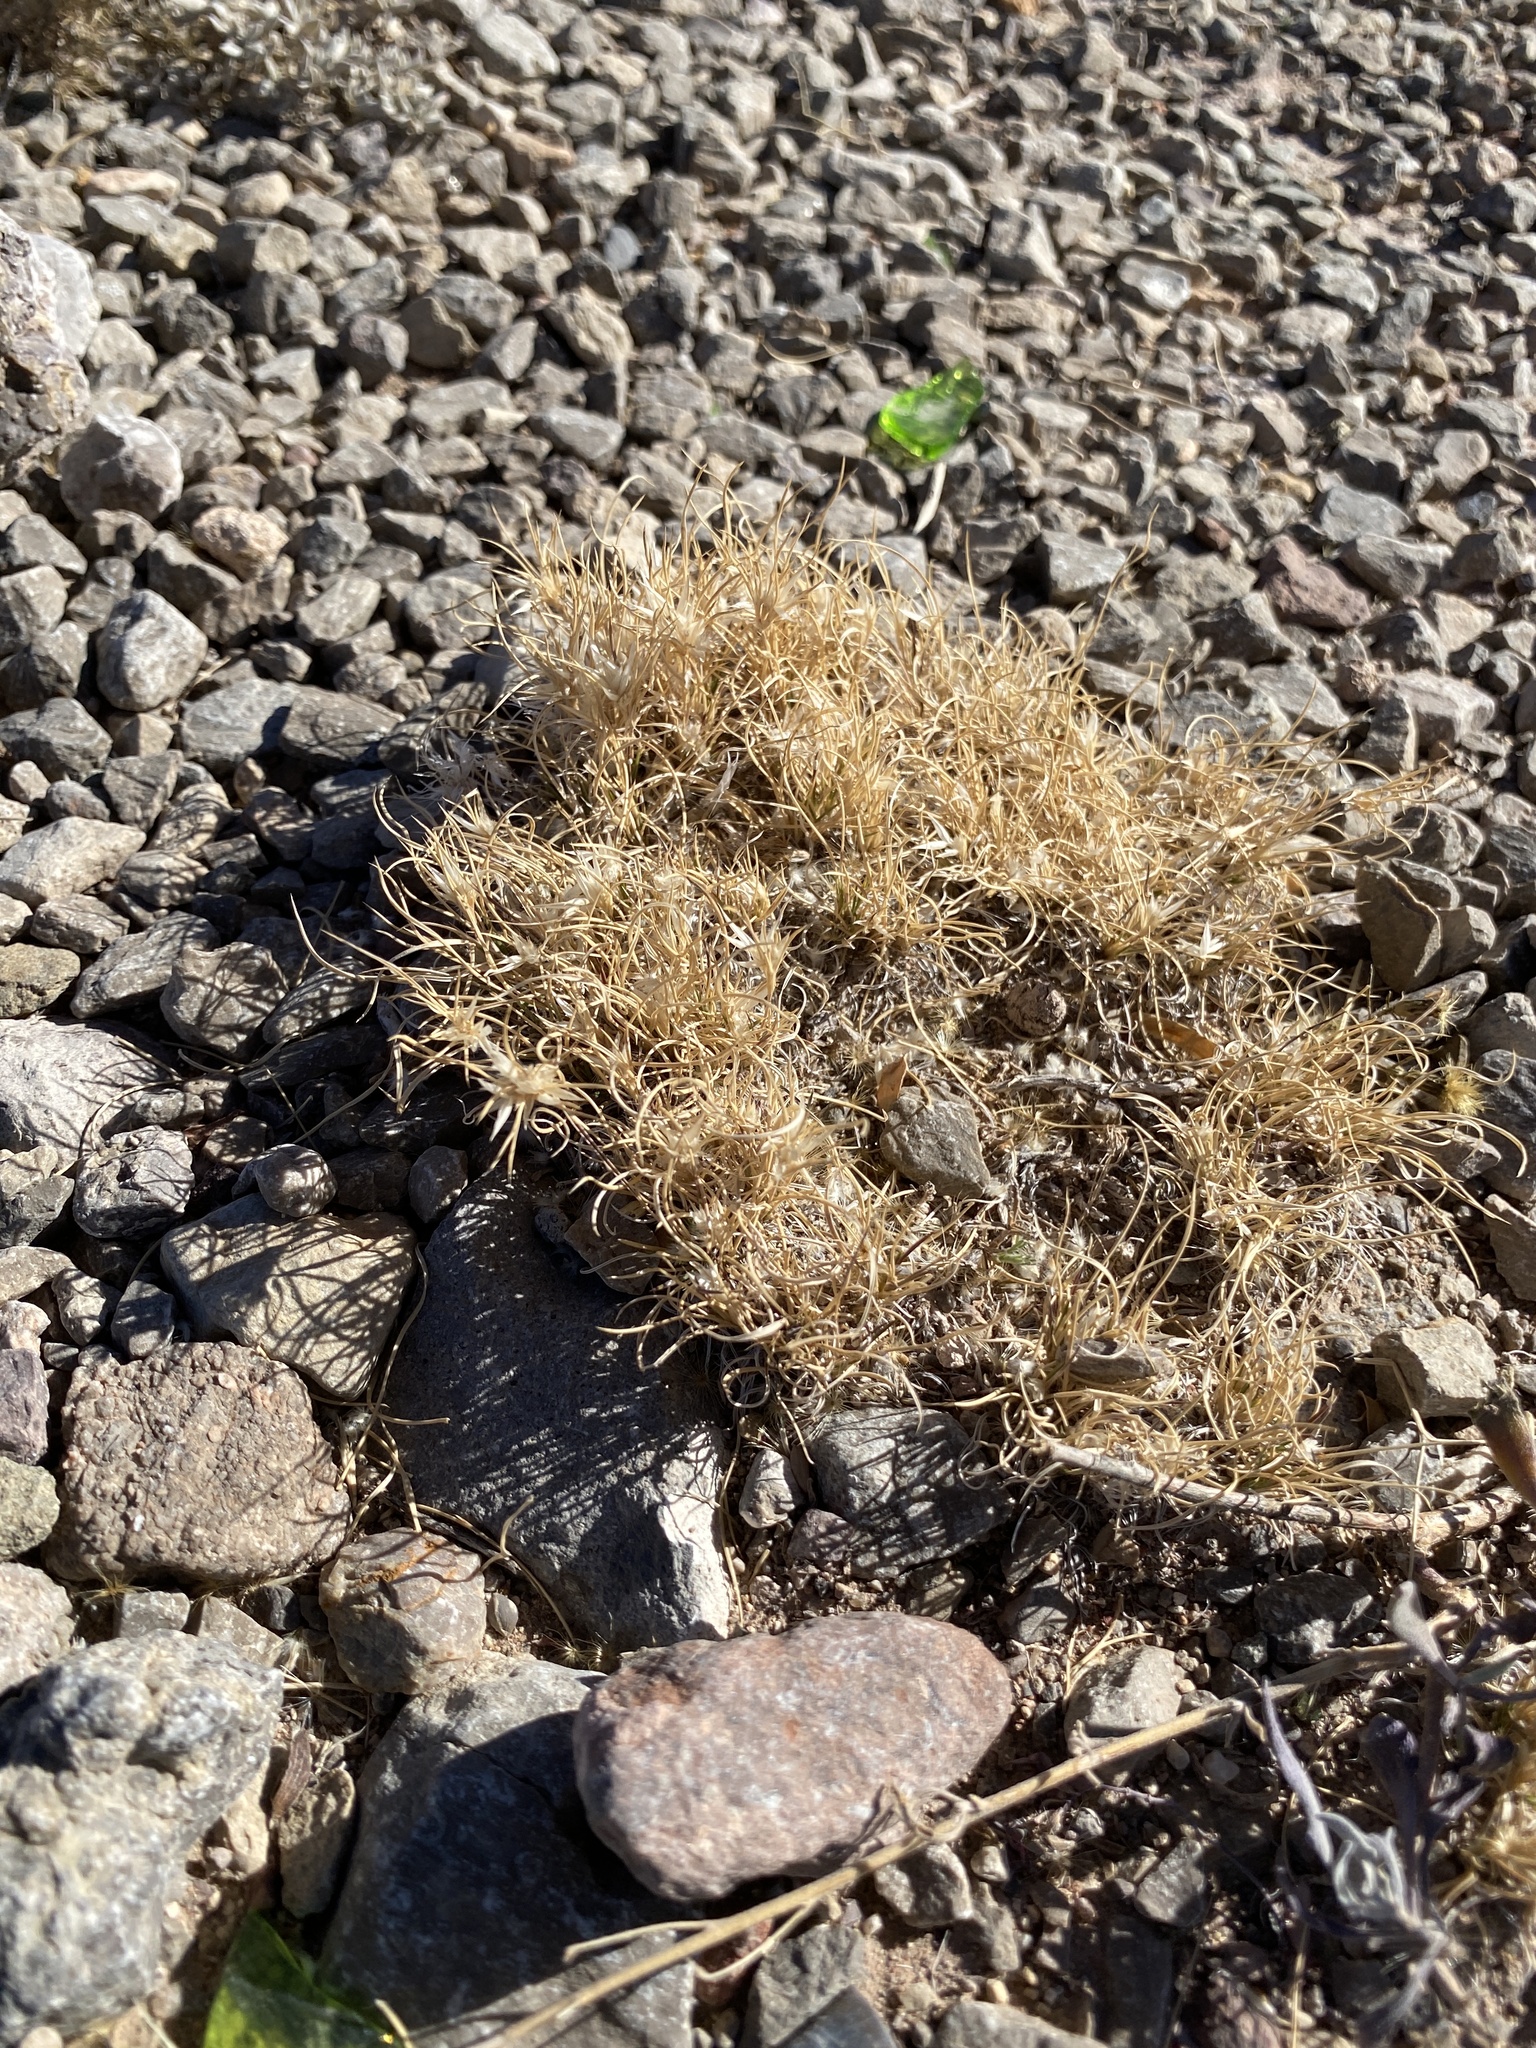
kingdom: Plantae
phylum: Tracheophyta
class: Liliopsida
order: Poales
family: Poaceae
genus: Dasyochloa
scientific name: Dasyochloa pulchella
